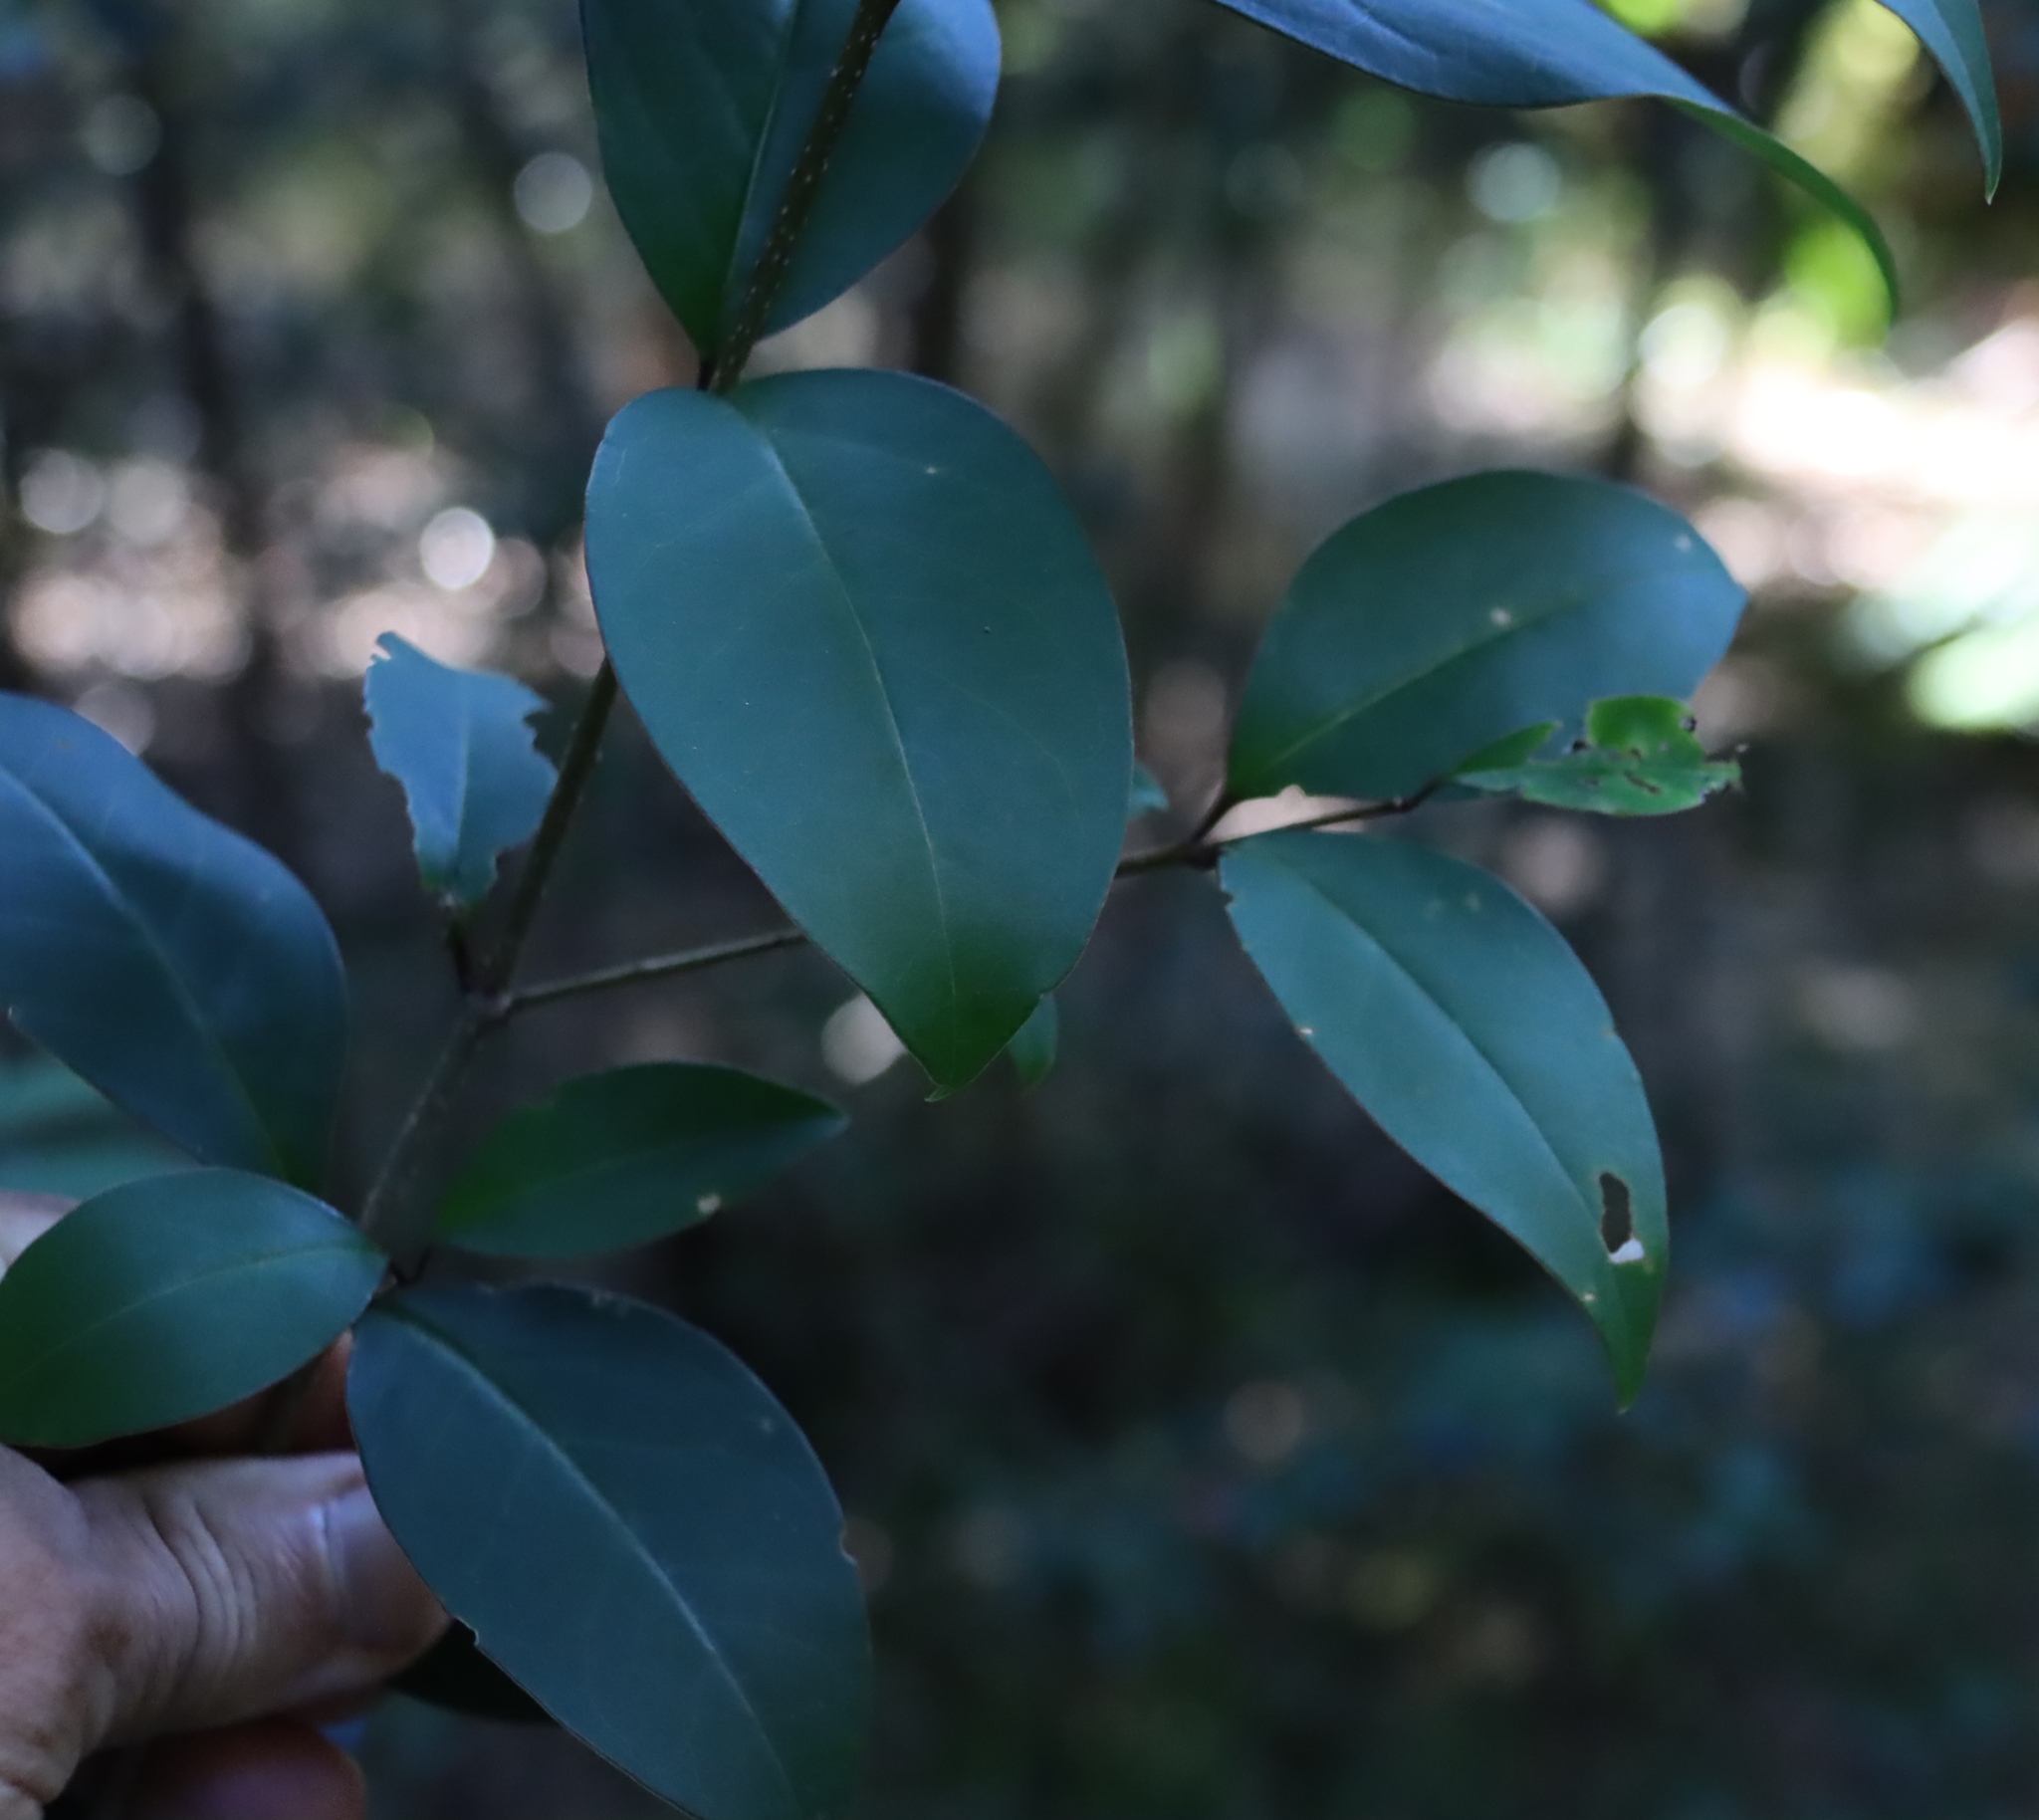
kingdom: Plantae
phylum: Tracheophyta
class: Magnoliopsida
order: Lamiales
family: Oleaceae
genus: Ligustrum
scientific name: Ligustrum lucidum
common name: Glossy privet
